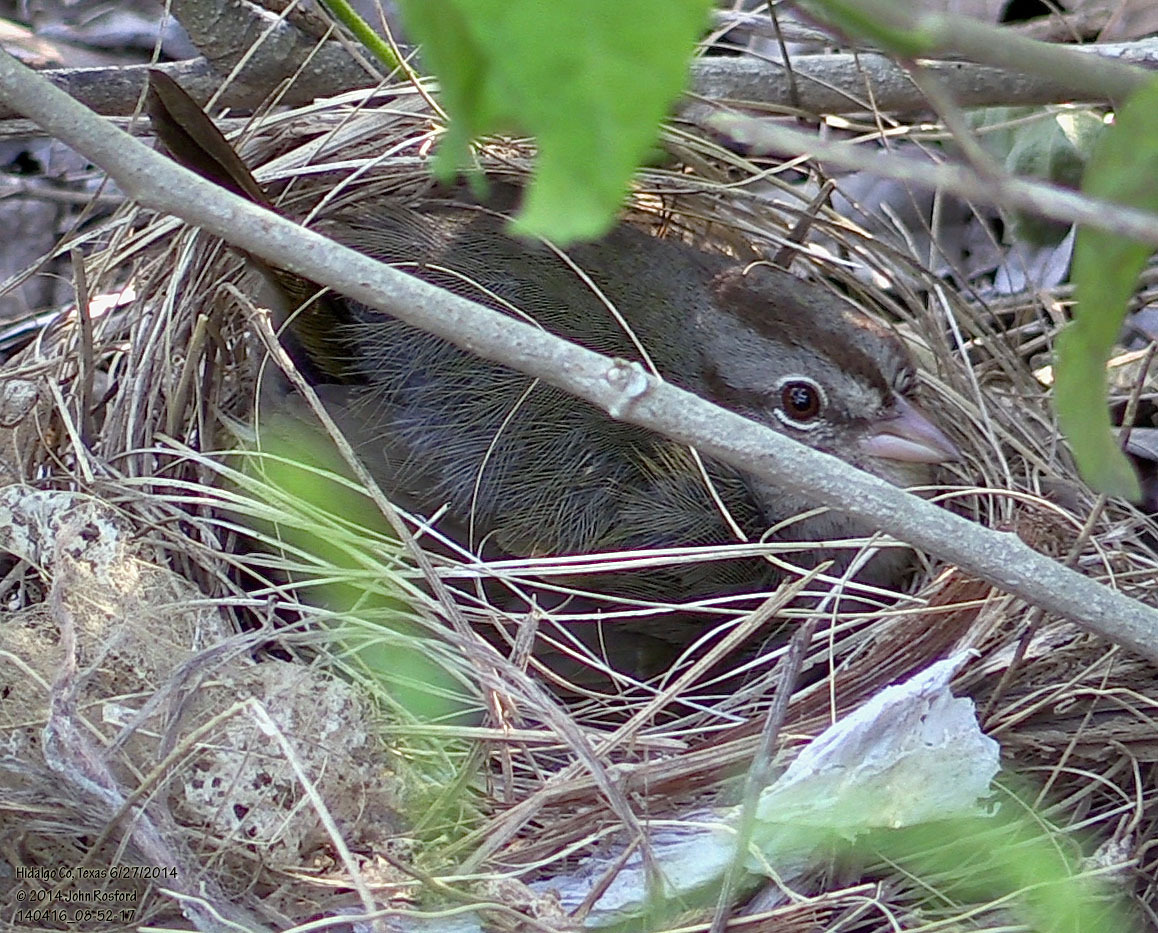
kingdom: Animalia
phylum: Chordata
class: Aves
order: Passeriformes
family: Passerellidae
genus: Arremonops
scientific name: Arremonops rufivirgatus
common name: Olive sparrow
